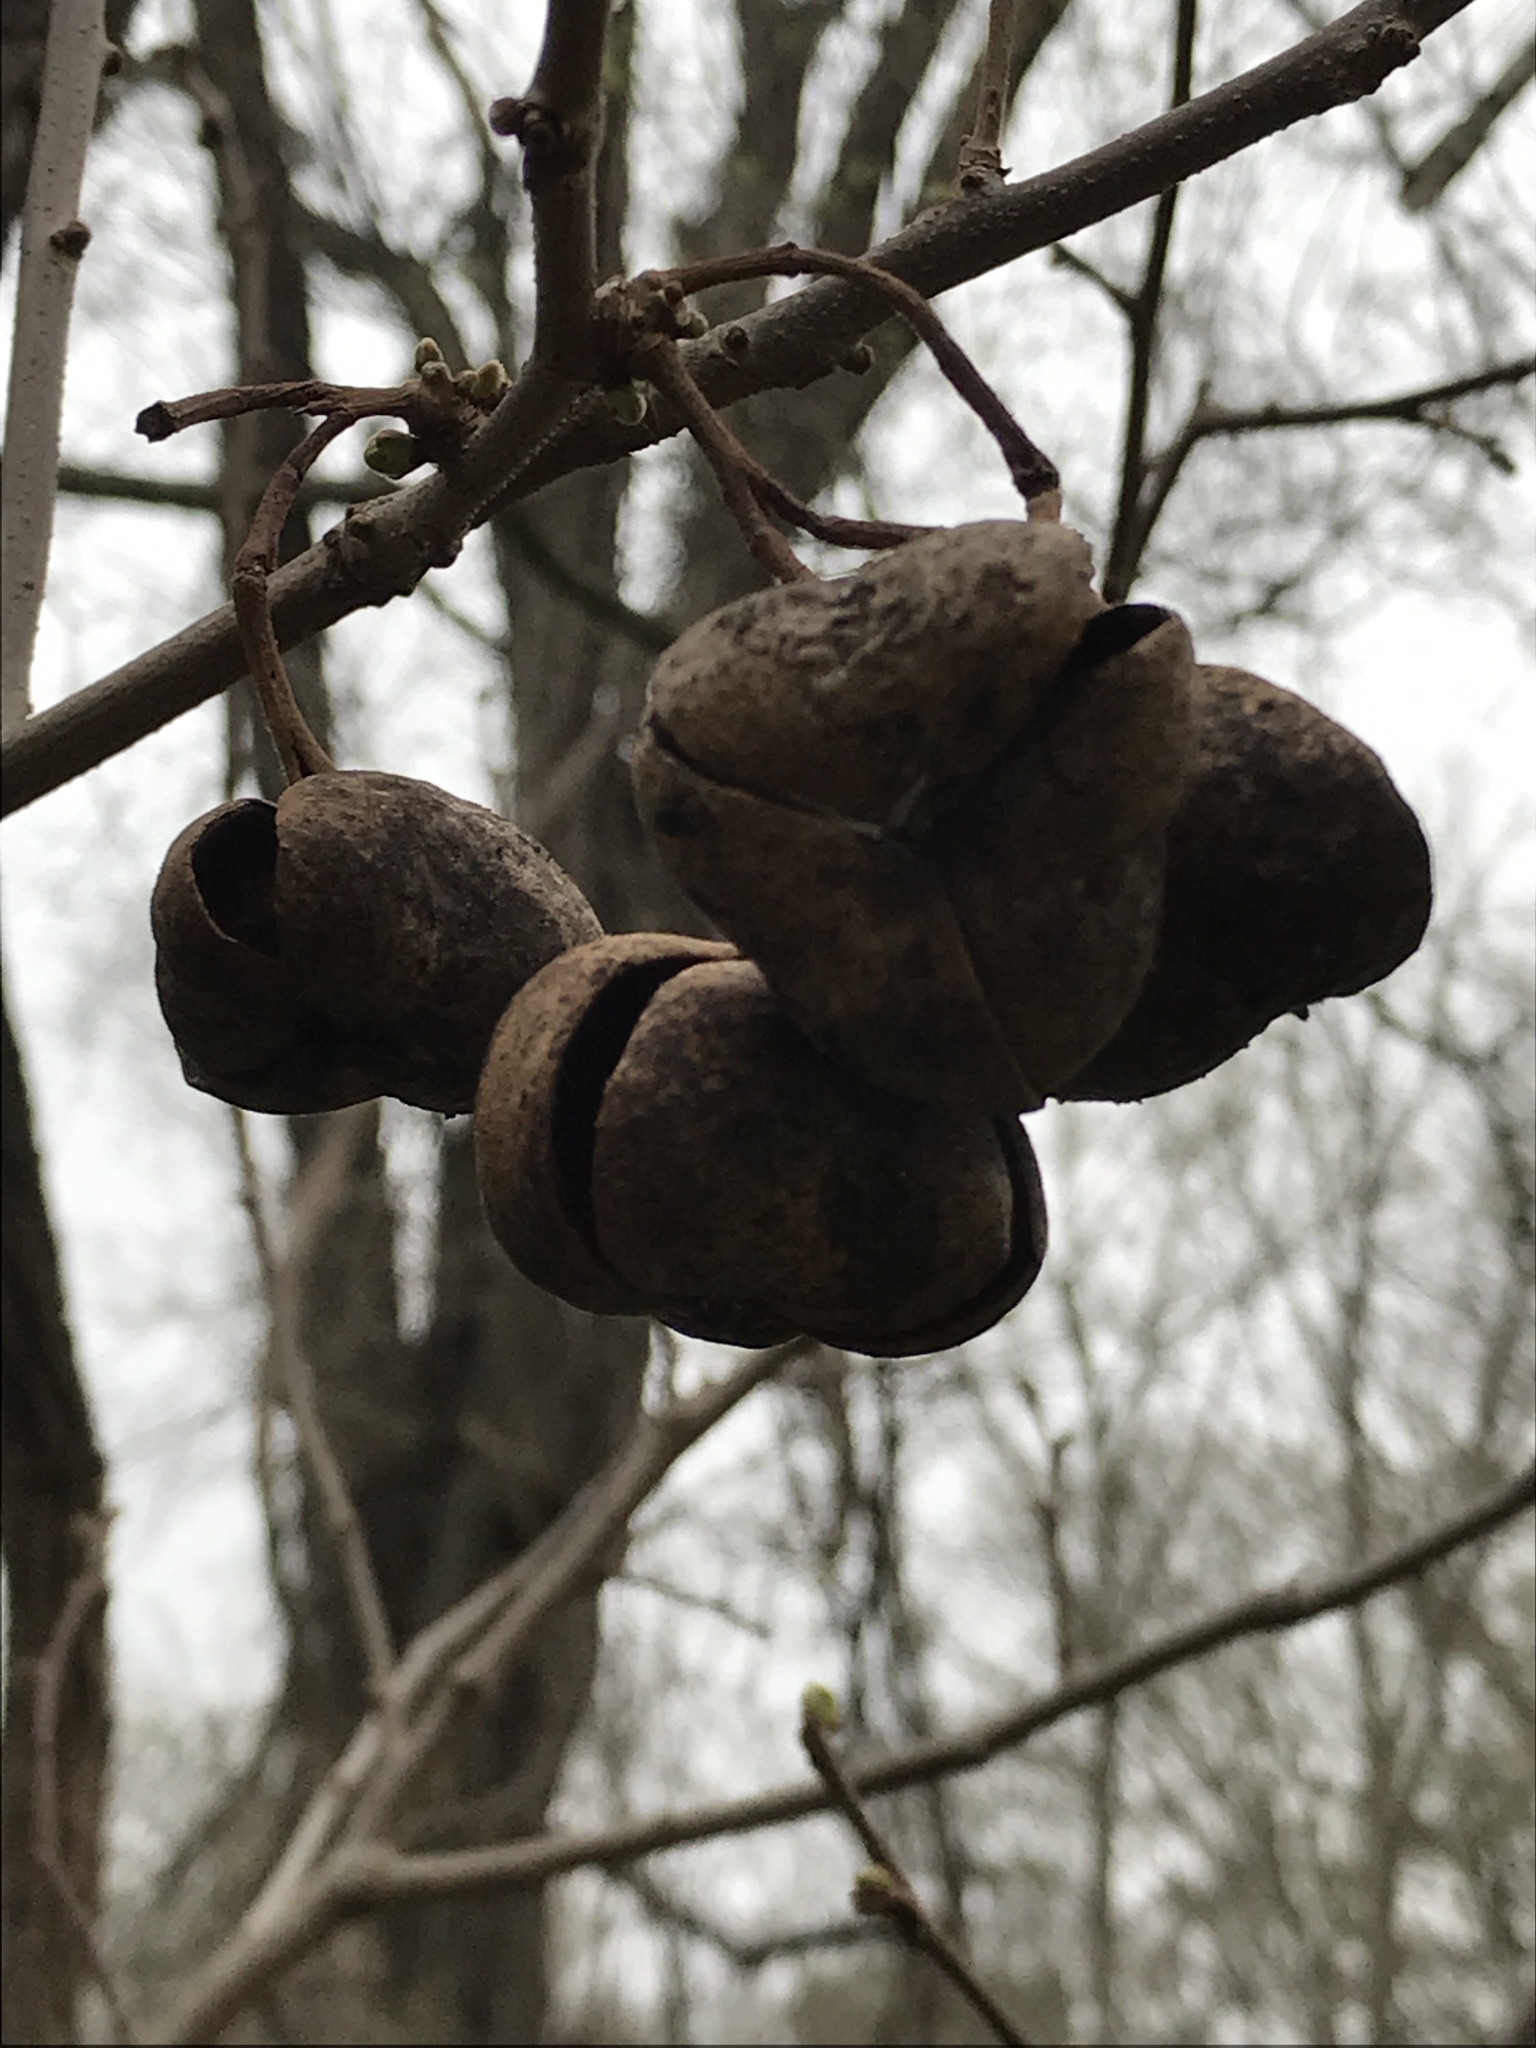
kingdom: Plantae
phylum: Tracheophyta
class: Magnoliopsida
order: Sapindales
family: Sapindaceae
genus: Ungnadia
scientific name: Ungnadia speciosa
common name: Texas-buckeye
